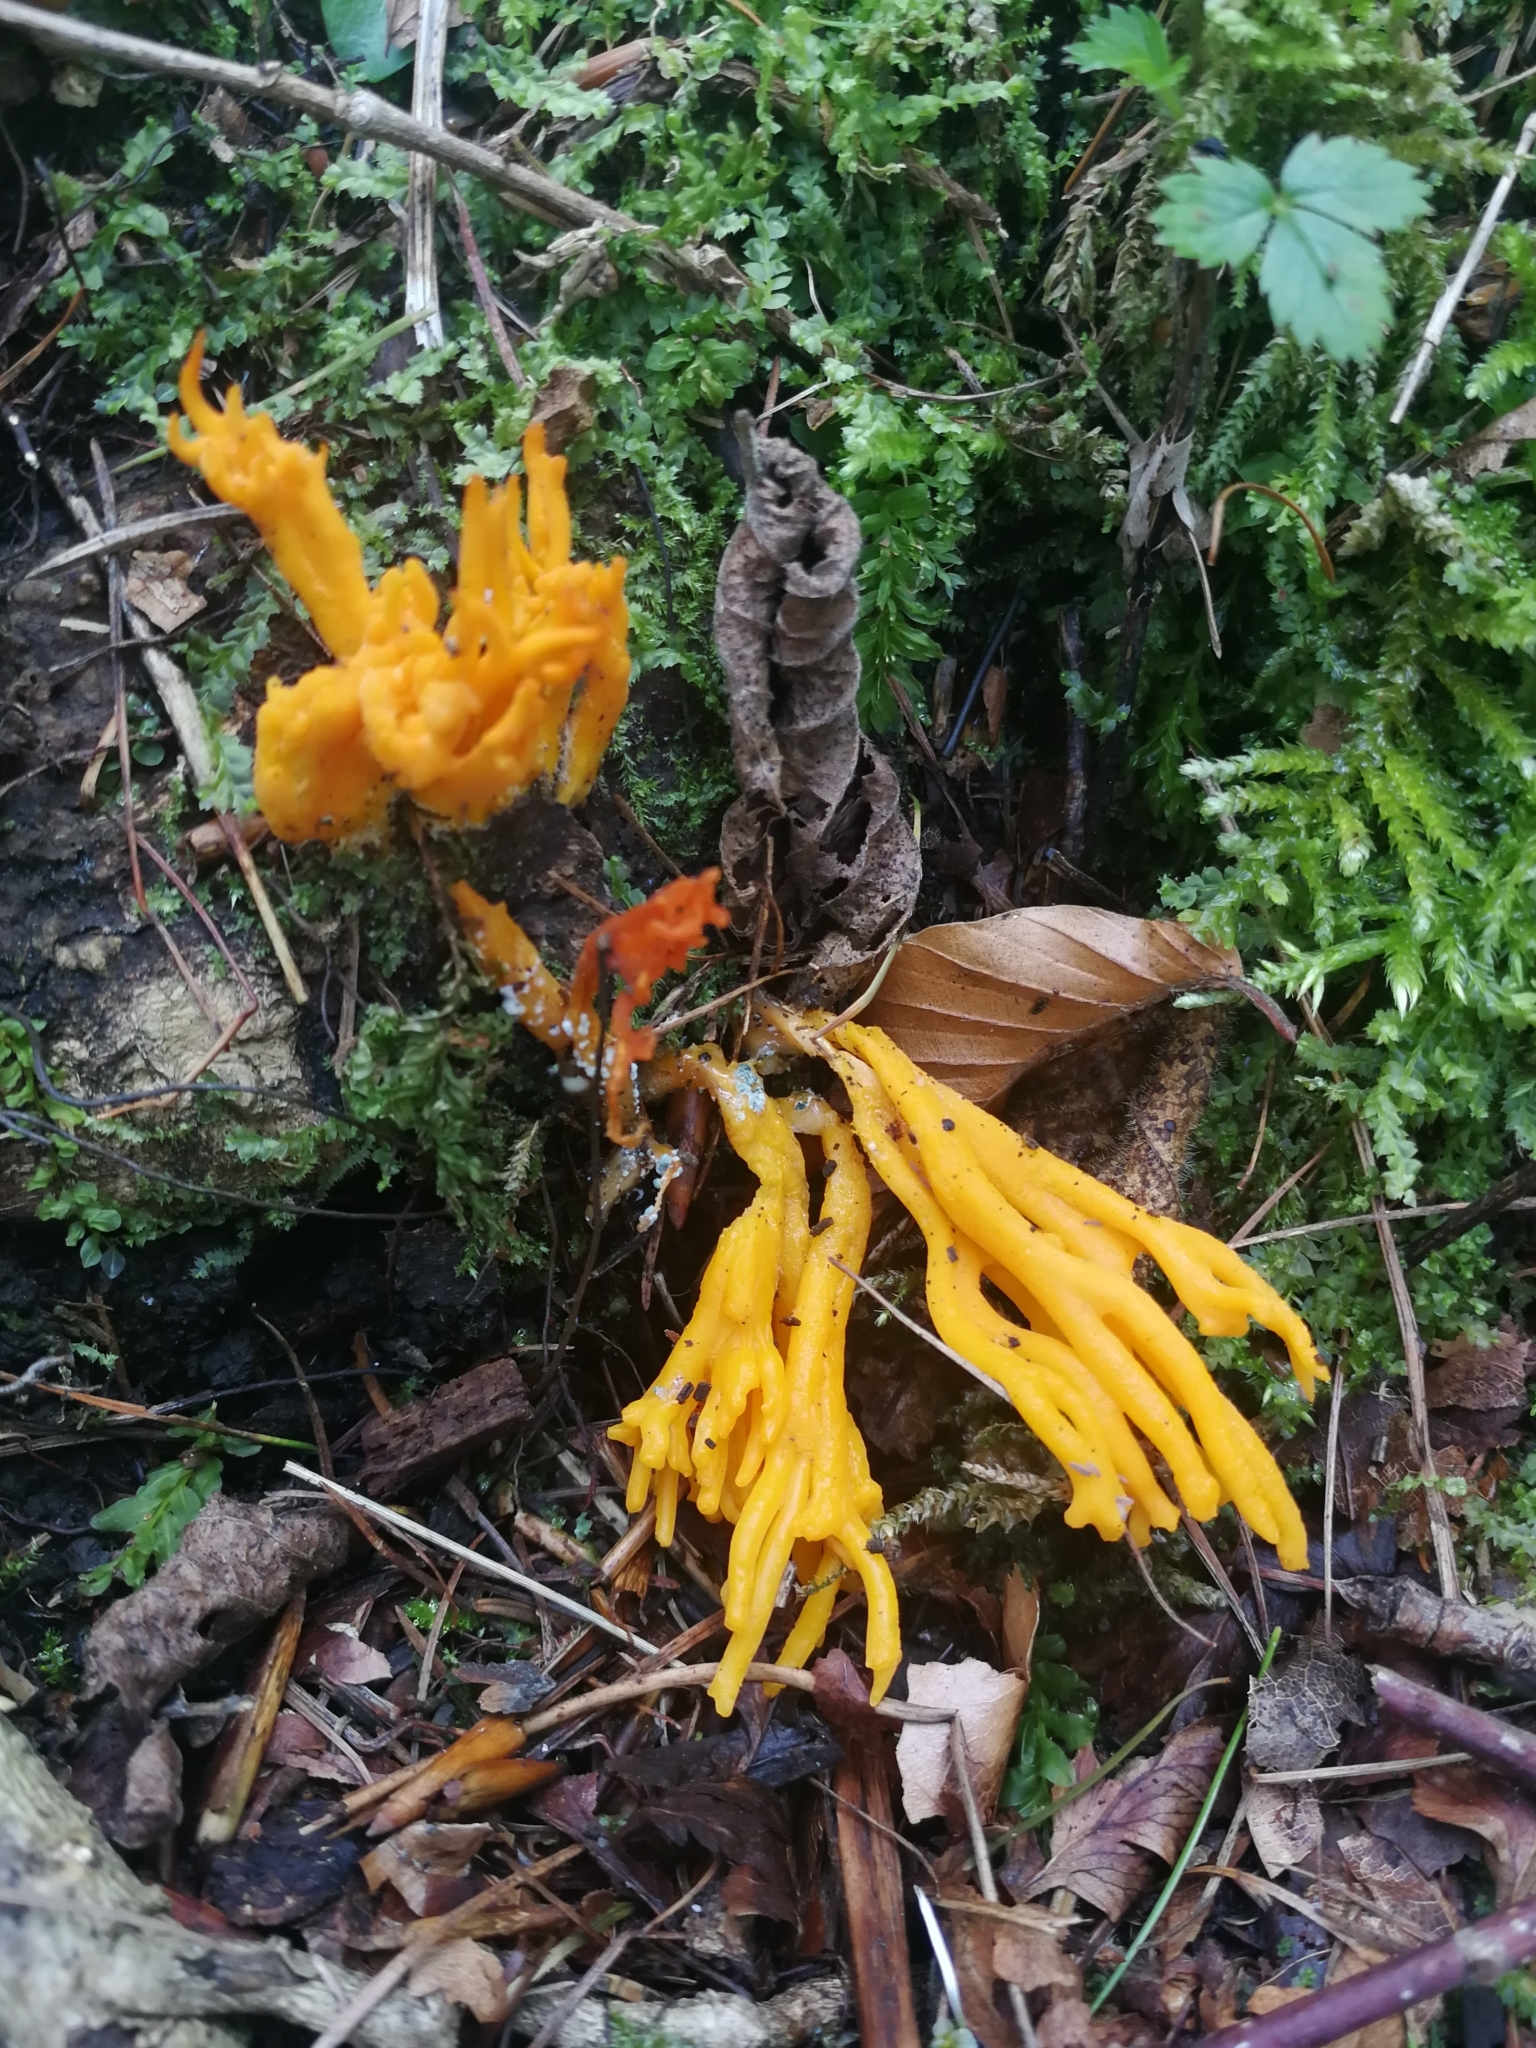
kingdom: Fungi
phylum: Basidiomycota
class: Dacrymycetes
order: Dacrymycetales
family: Dacrymycetaceae
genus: Calocera
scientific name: Calocera viscosa
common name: Yellow stagshorn
